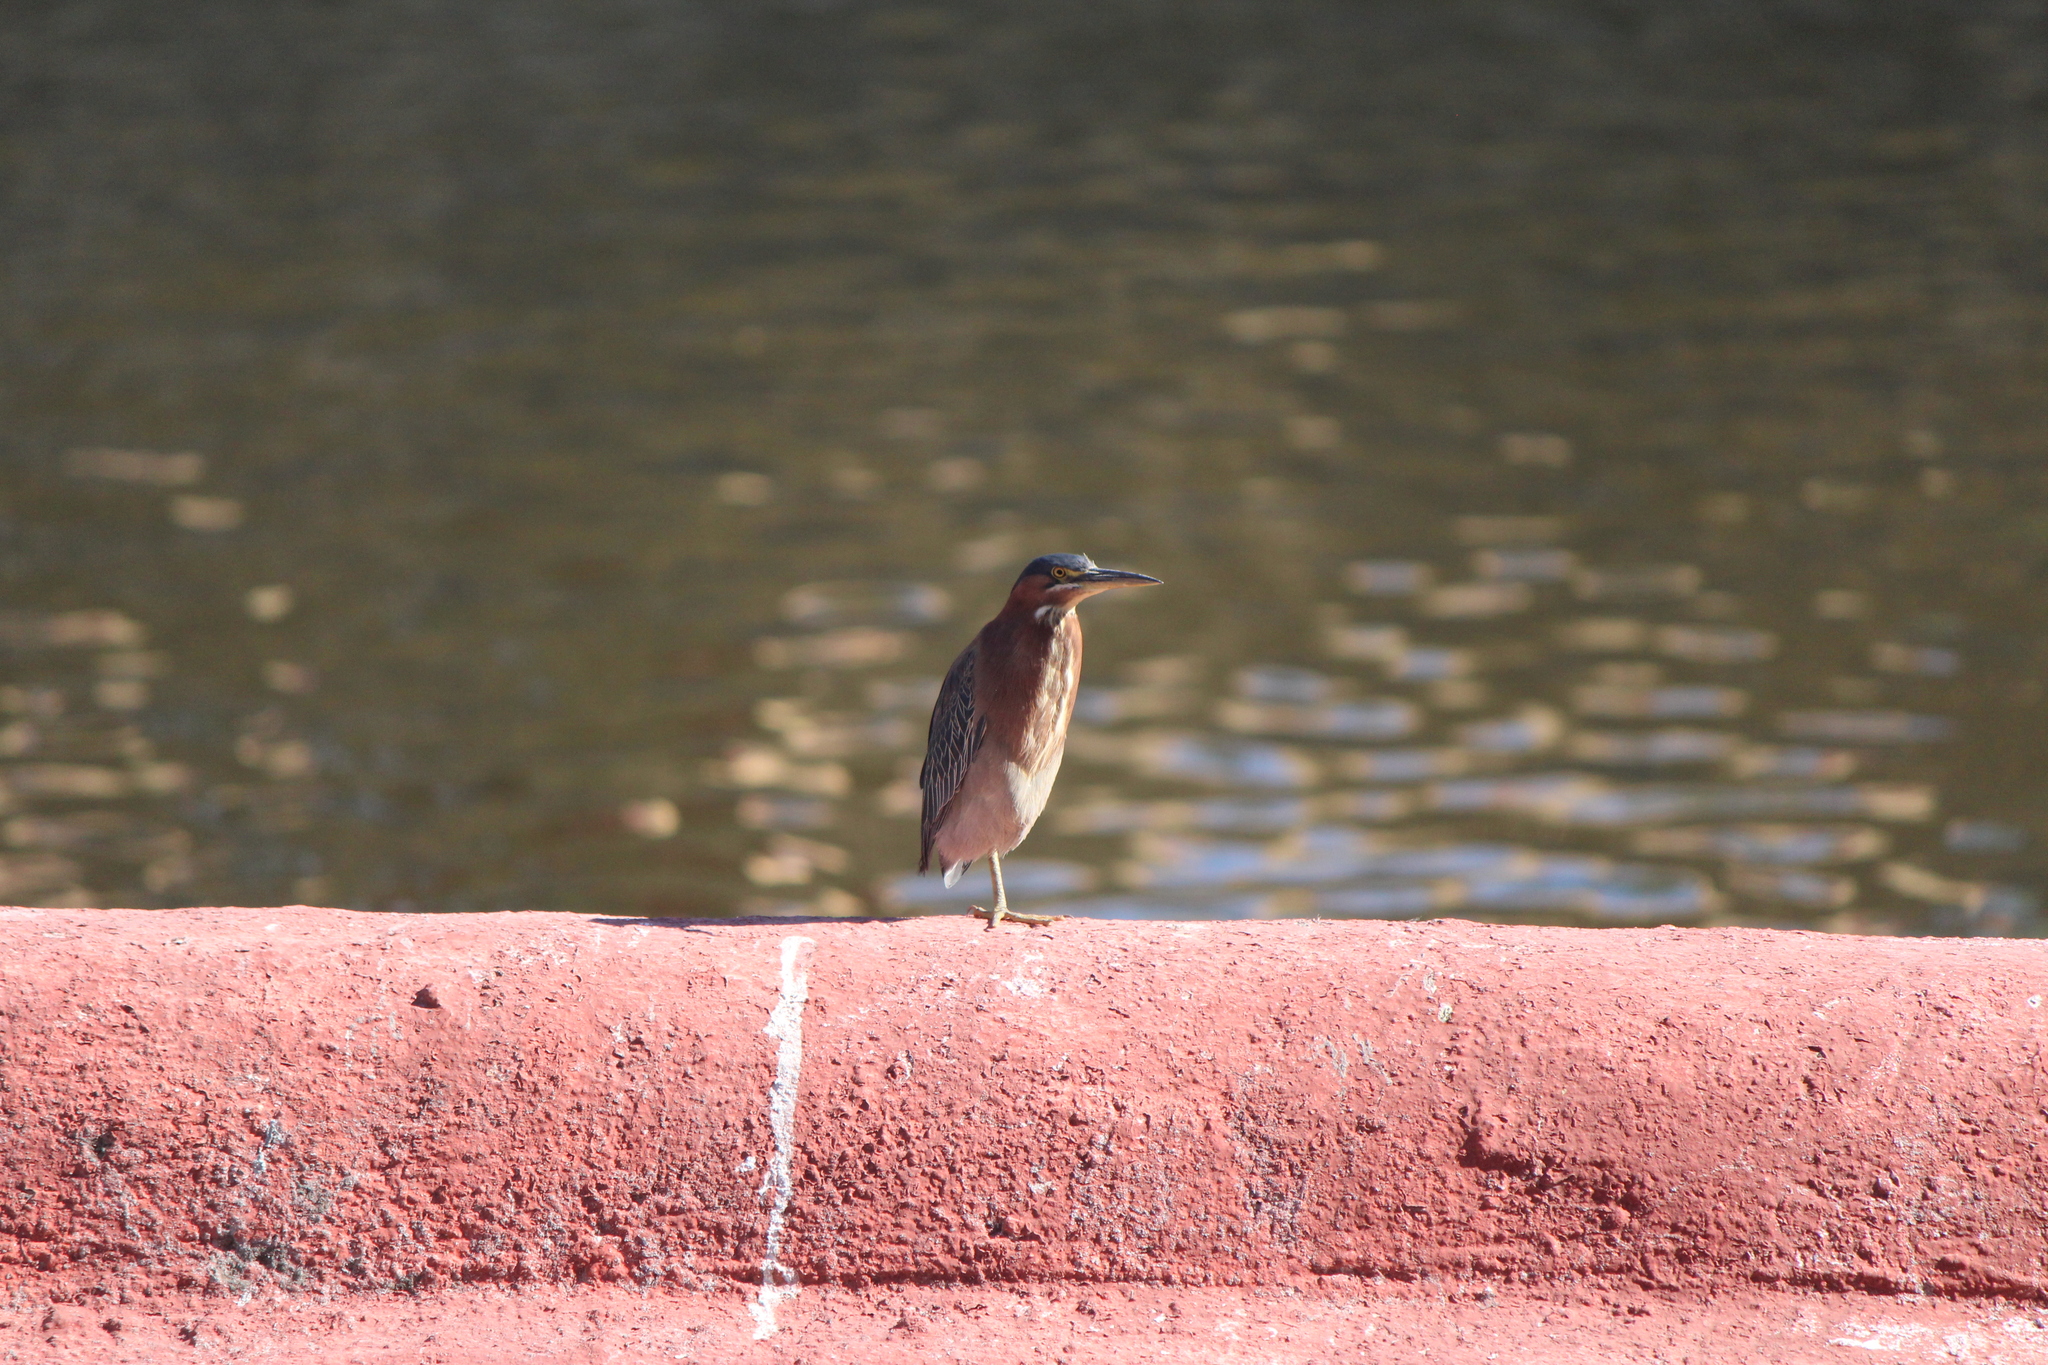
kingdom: Animalia
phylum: Chordata
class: Aves
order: Pelecaniformes
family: Ardeidae
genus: Butorides
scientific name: Butorides virescens
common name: Green heron
